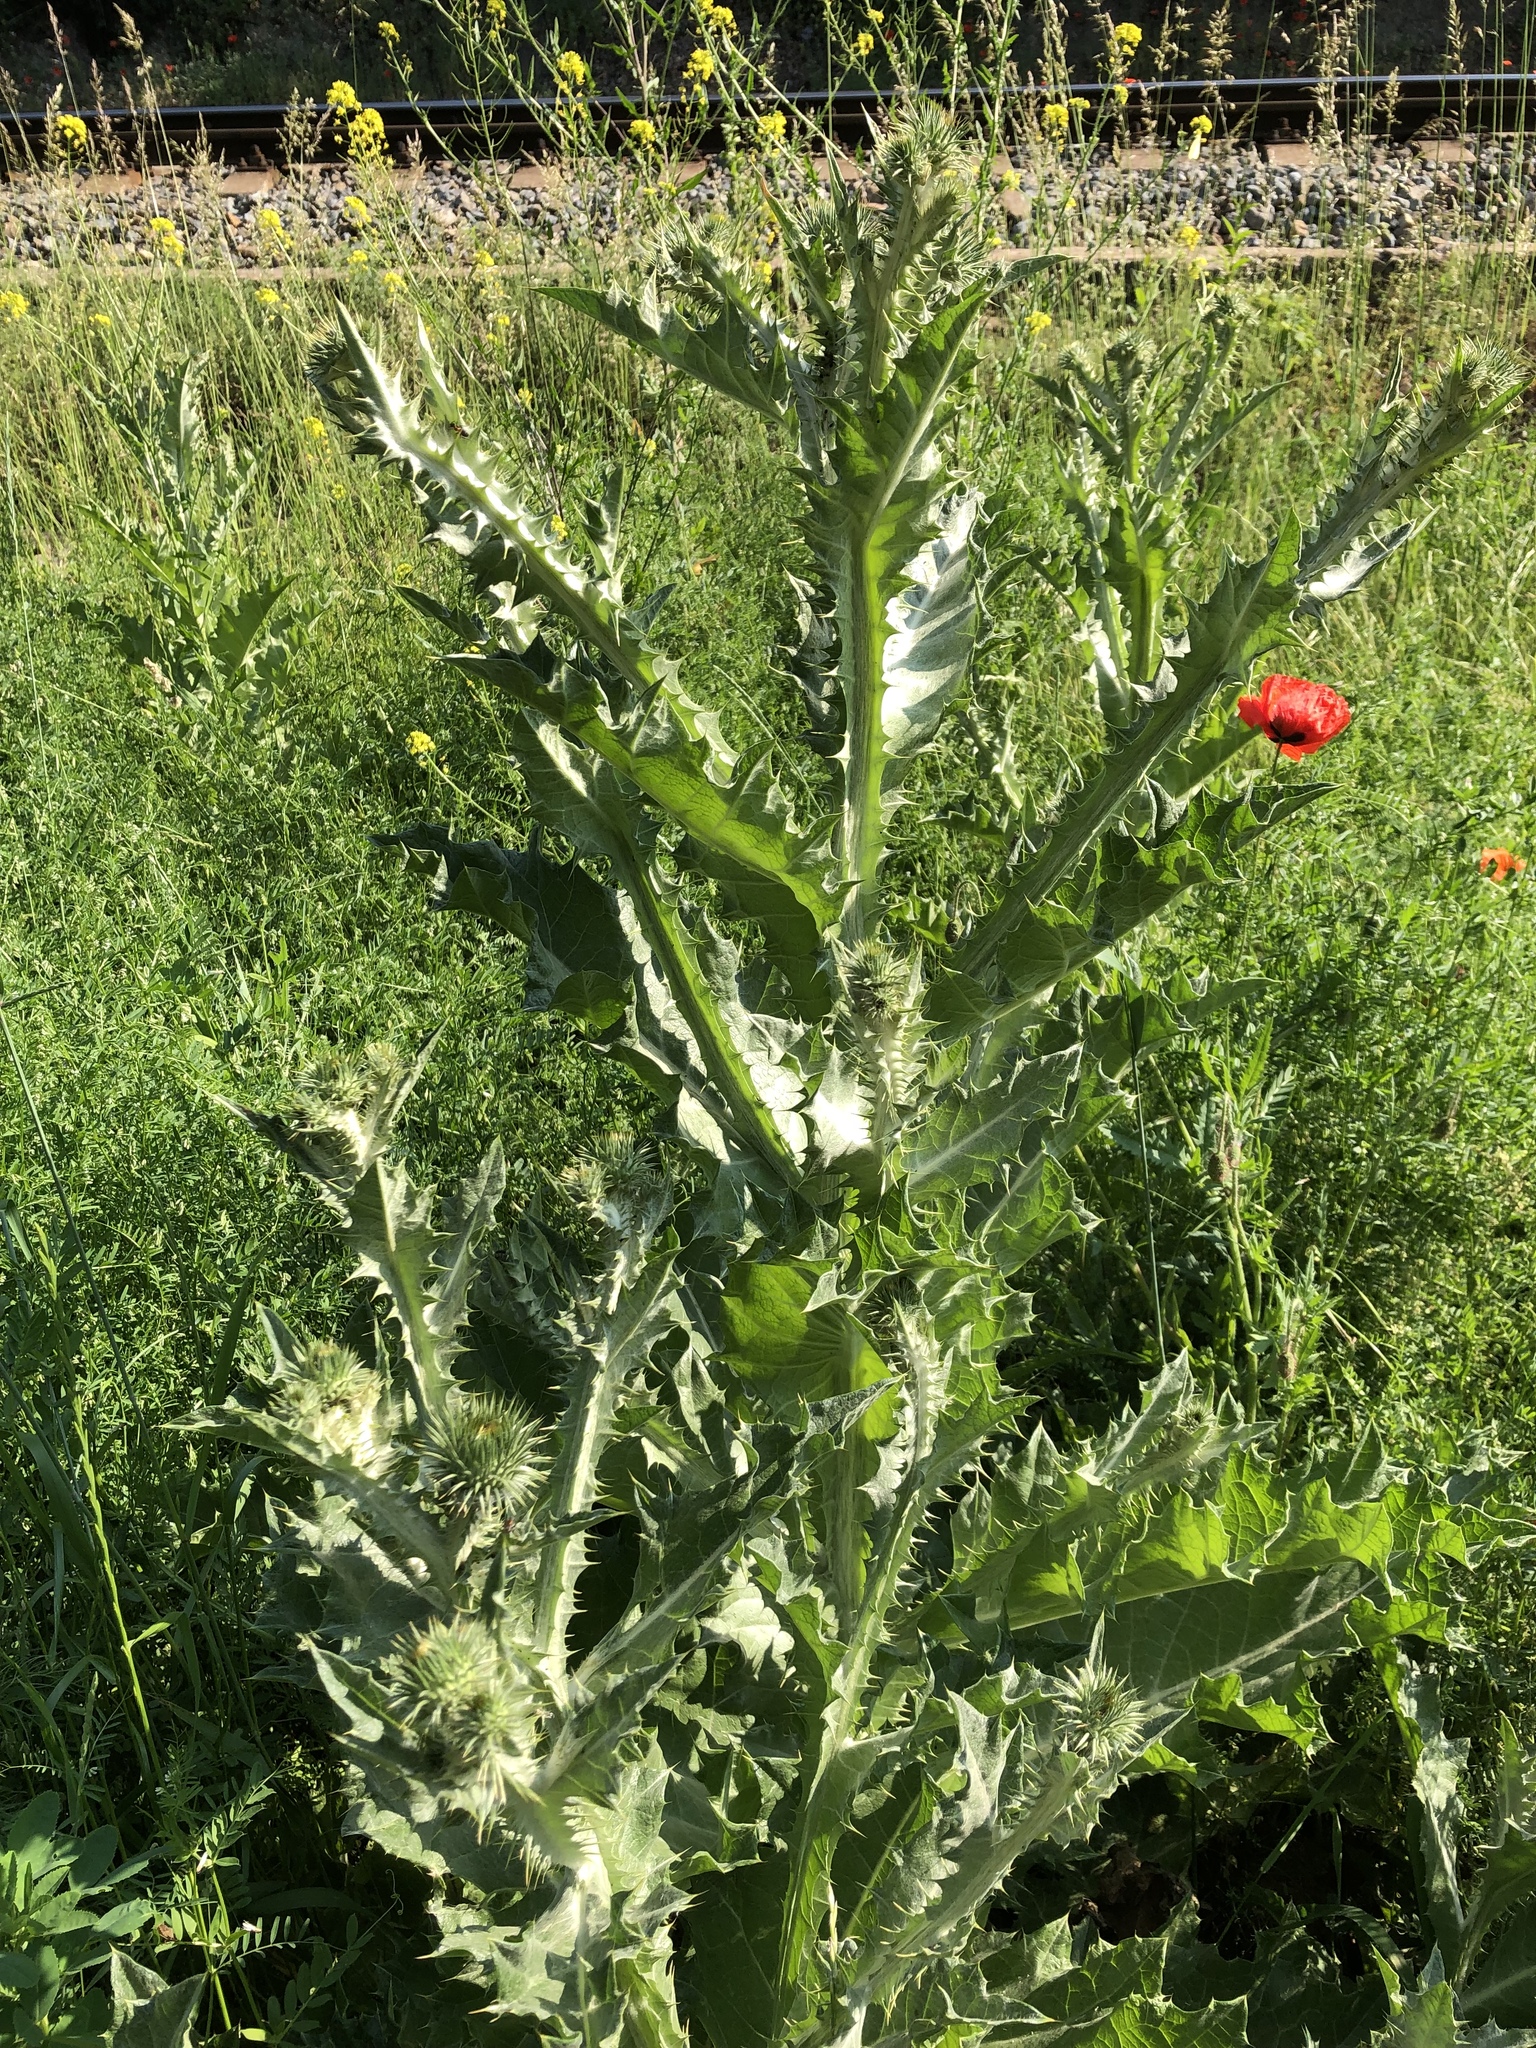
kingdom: Plantae
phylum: Tracheophyta
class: Magnoliopsida
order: Asterales
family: Asteraceae
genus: Onopordum
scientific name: Onopordum acanthium
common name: Scotch thistle
